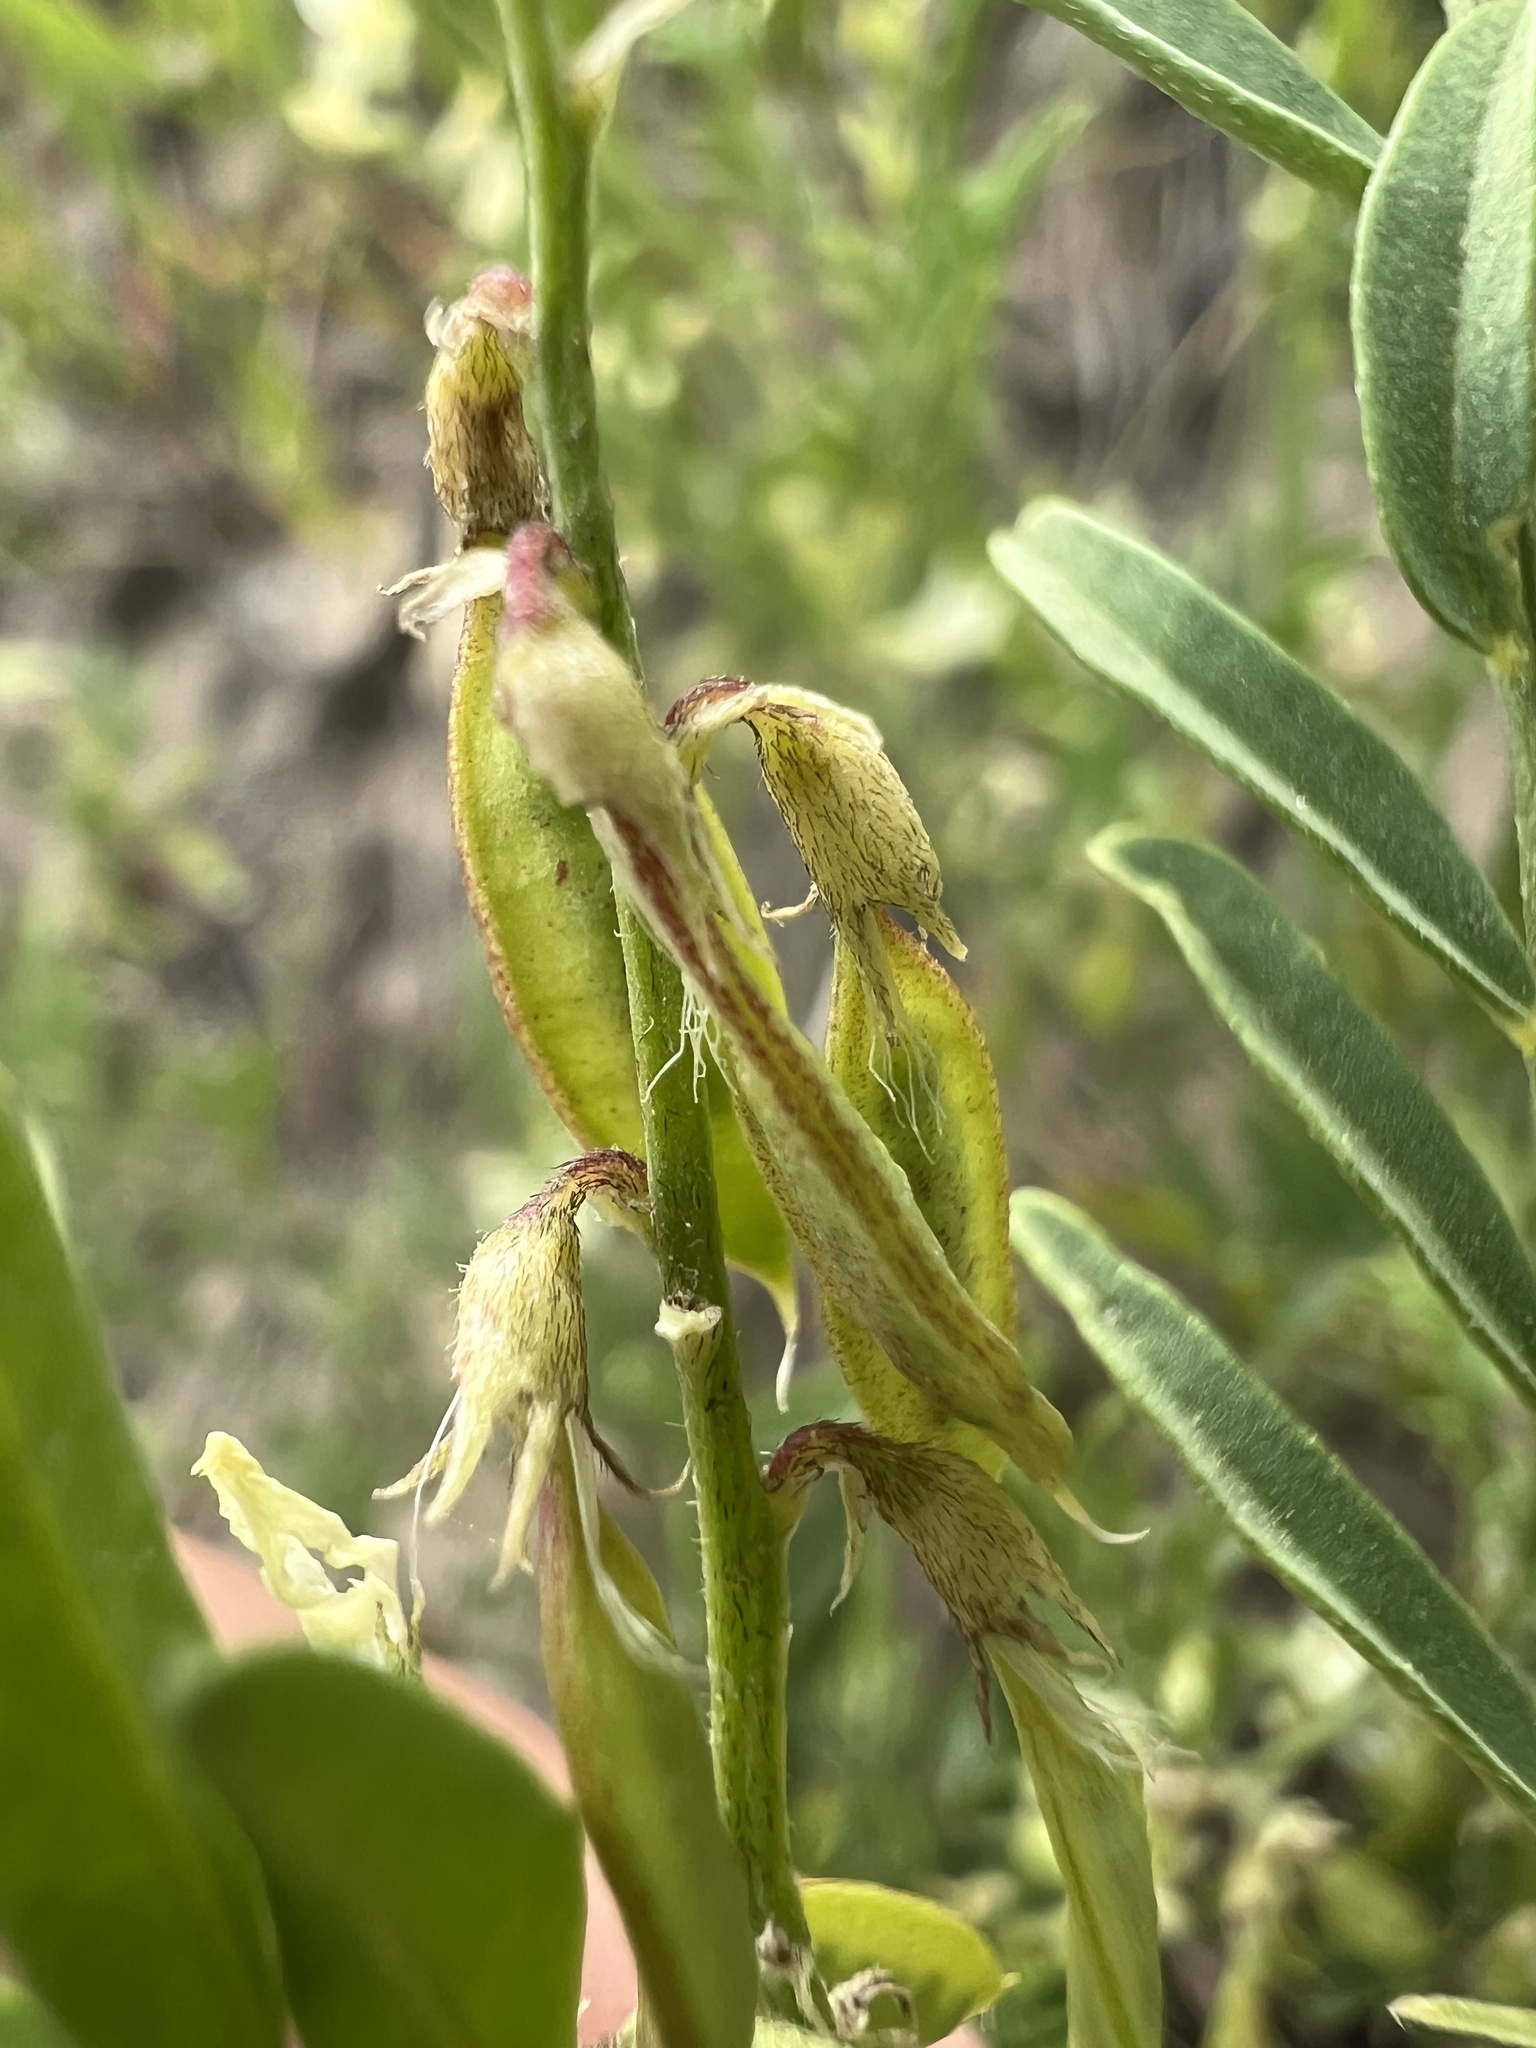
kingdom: Plantae
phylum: Tracheophyta
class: Magnoliopsida
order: Fabales
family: Fabaceae
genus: Astragalus
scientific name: Astragalus tenellus
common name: Pulse milk-vetch
